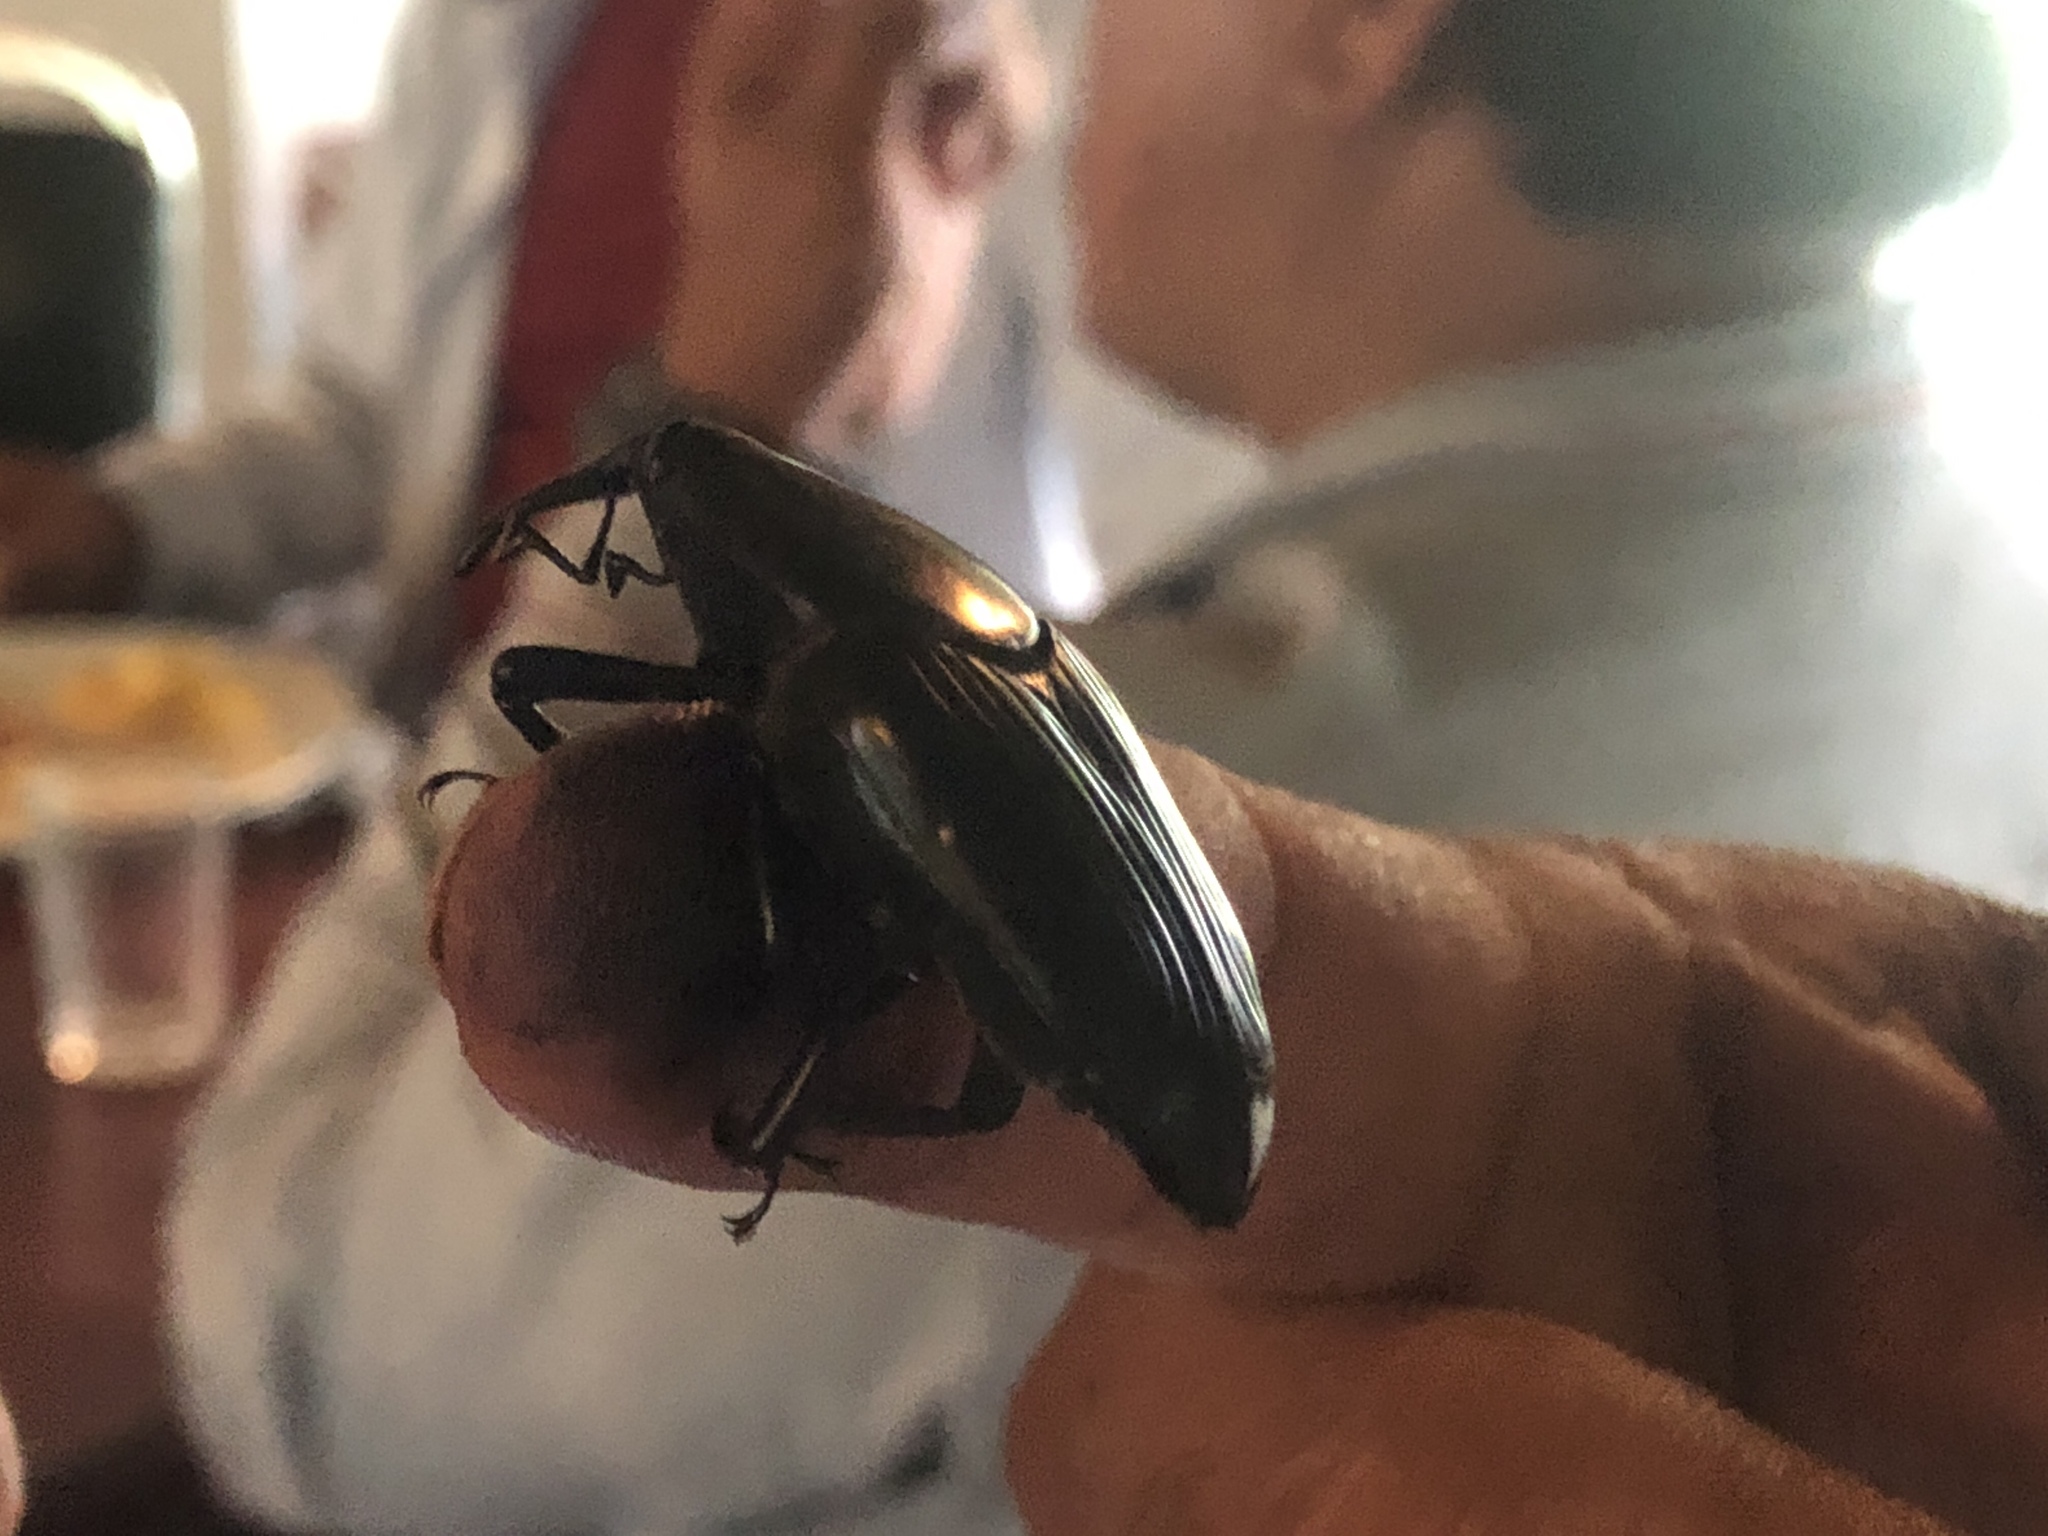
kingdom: Animalia
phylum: Arthropoda
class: Insecta
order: Coleoptera
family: Dryophthoridae
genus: Rhynchophorus
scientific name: Rhynchophorus palmarum
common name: Palm weevil
